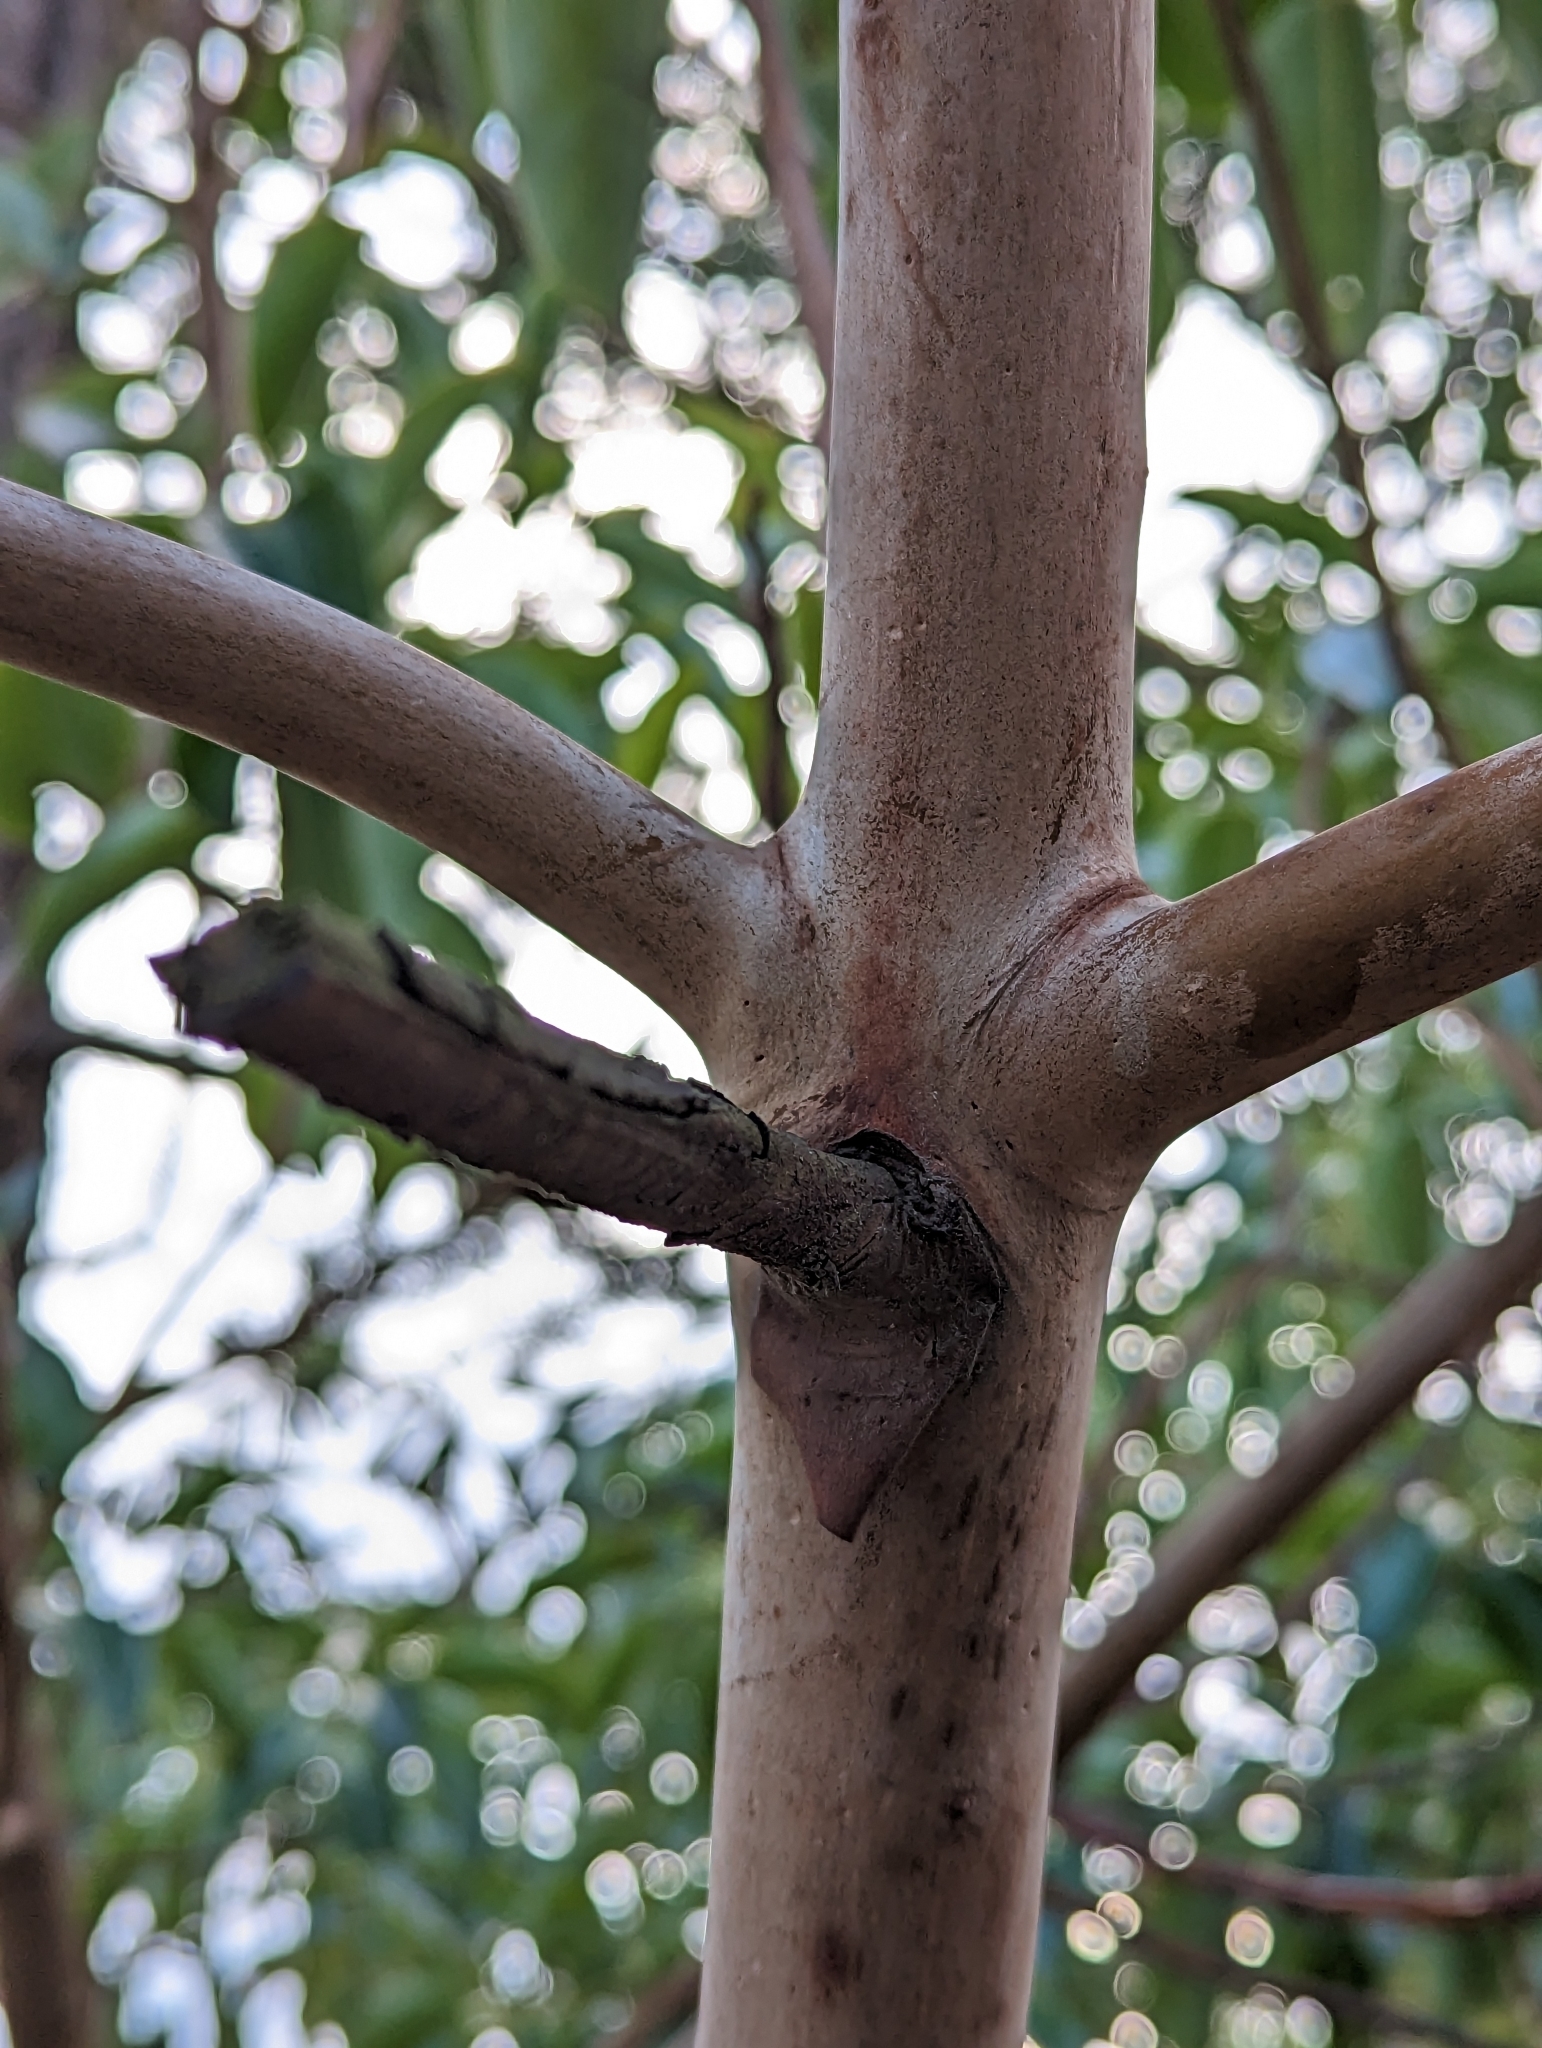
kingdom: Plantae
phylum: Tracheophyta
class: Magnoliopsida
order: Ericales
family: Ericaceae
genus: Arbutus
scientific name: Arbutus menziesii
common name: Pacific madrone
